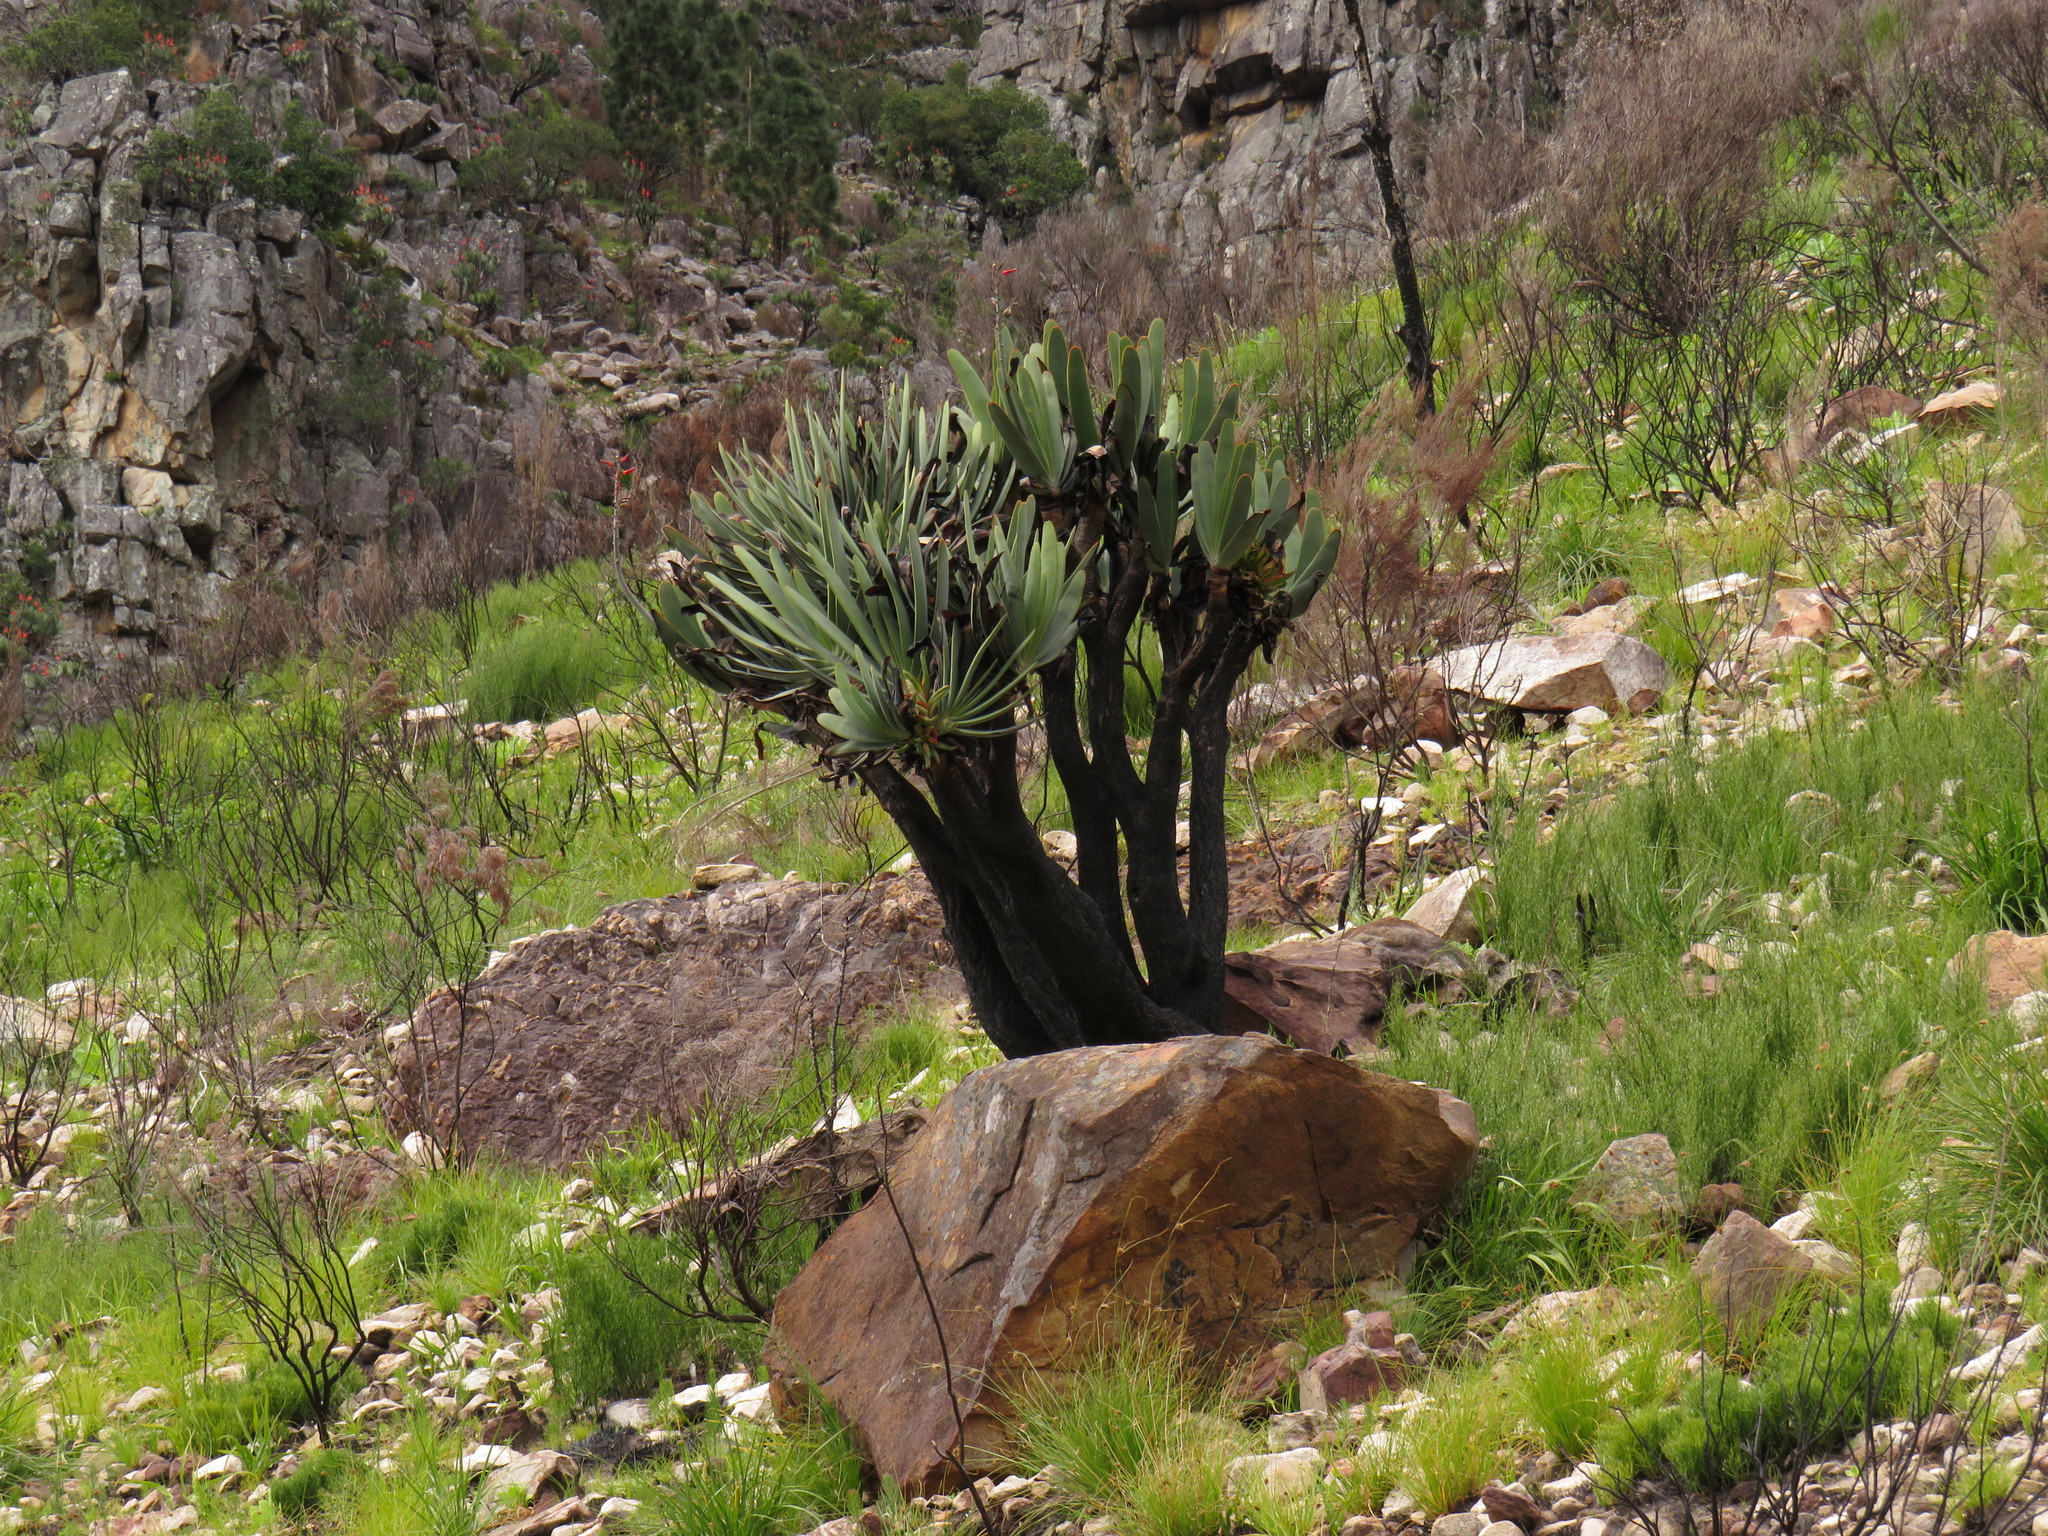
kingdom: Plantae
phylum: Tracheophyta
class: Liliopsida
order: Asparagales
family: Asphodelaceae
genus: Kumara
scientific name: Kumara plicatilis
